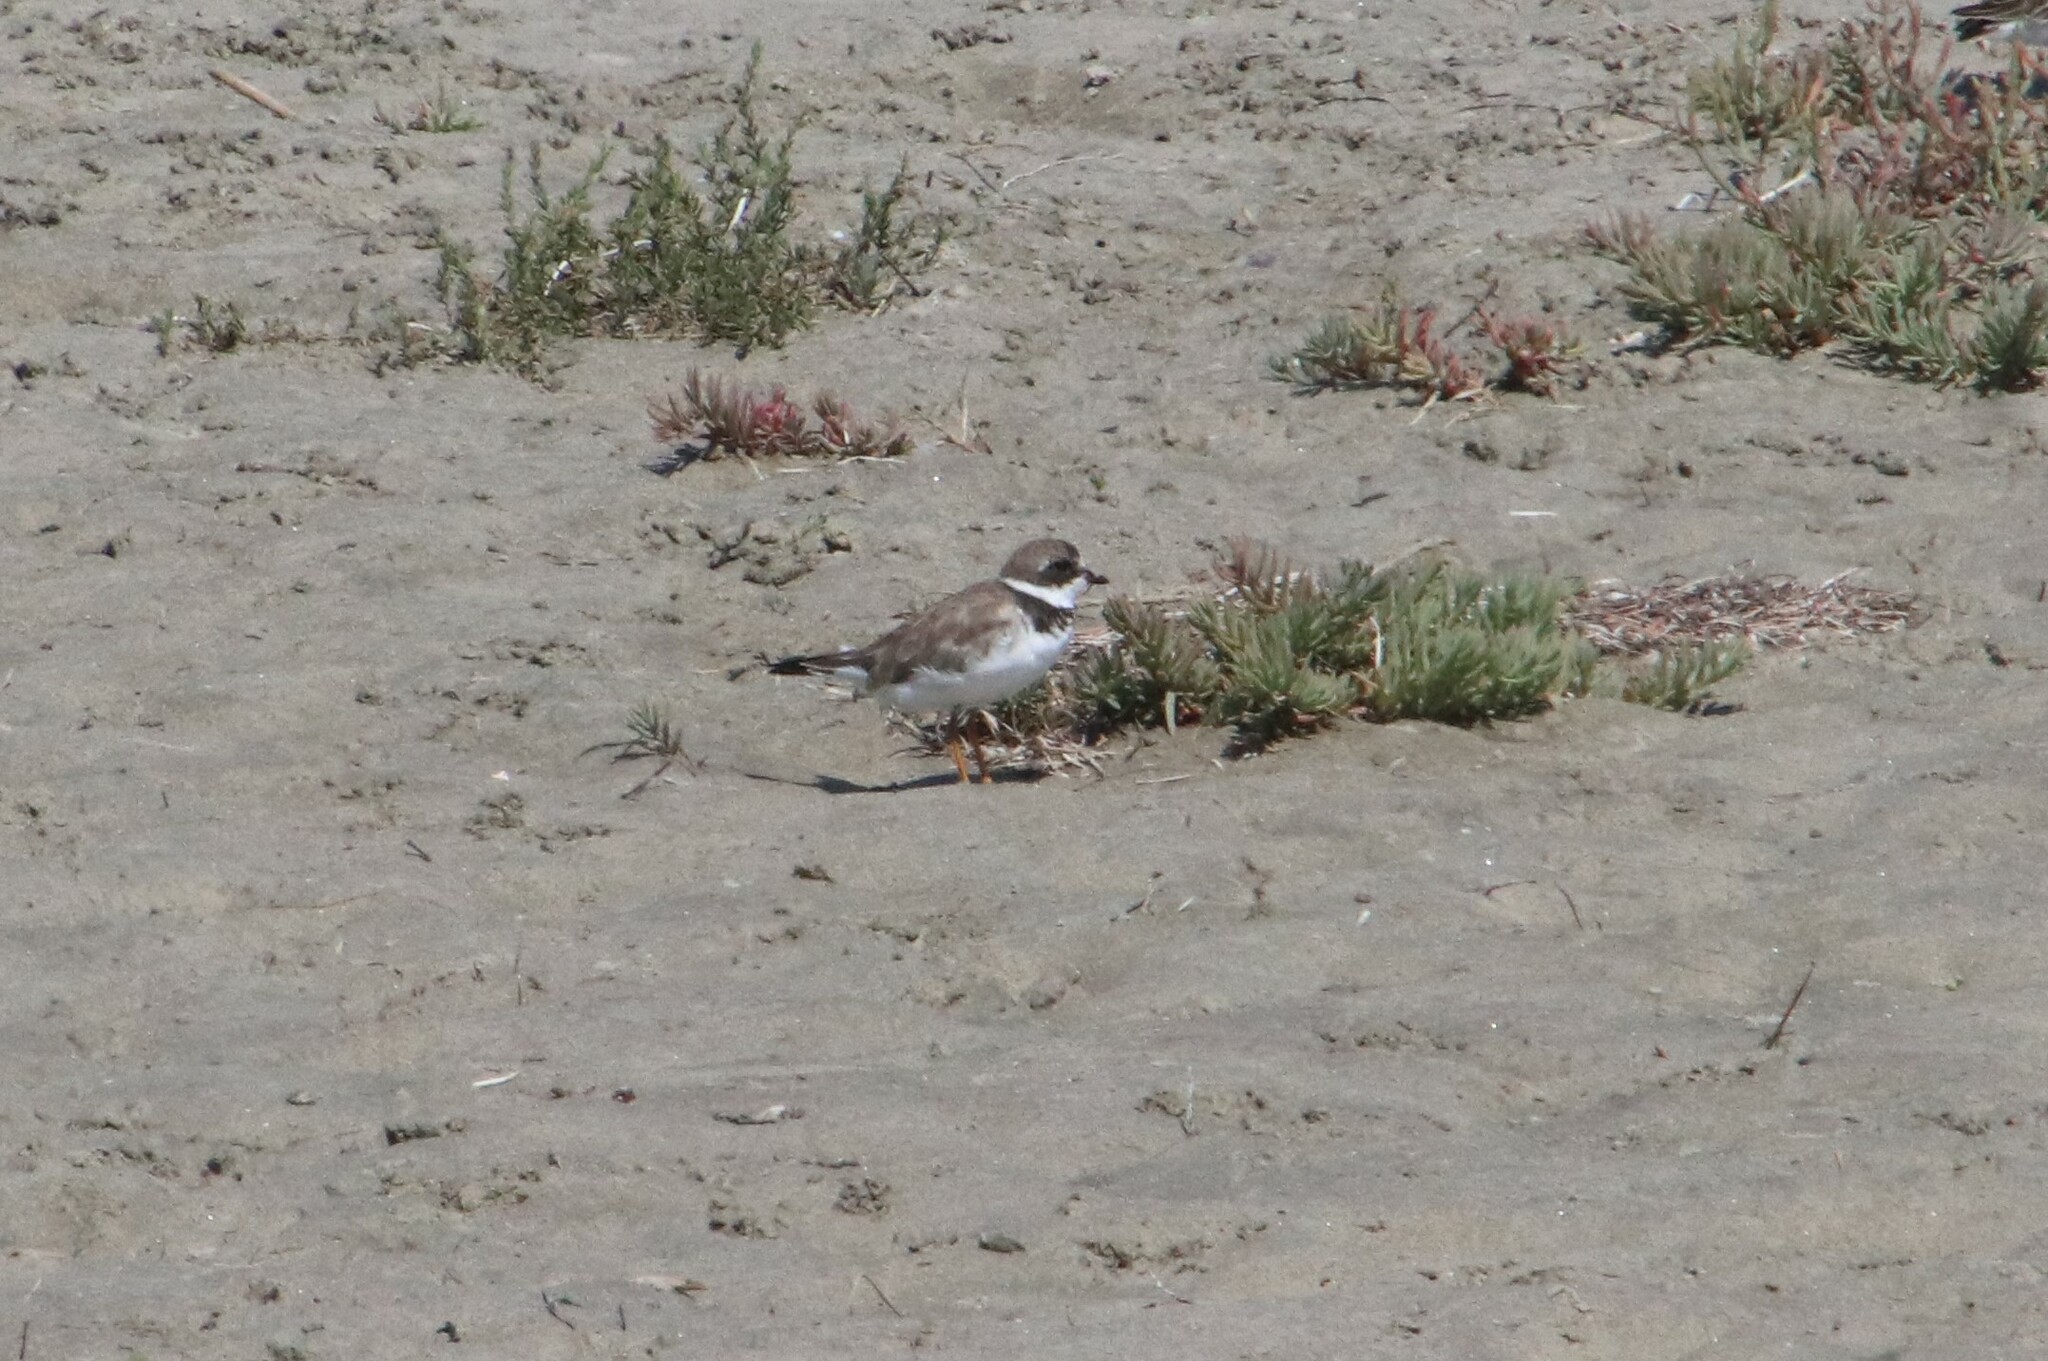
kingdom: Animalia
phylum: Chordata
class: Aves
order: Charadriiformes
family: Charadriidae
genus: Charadrius
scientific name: Charadrius semipalmatus
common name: Semipalmated plover
